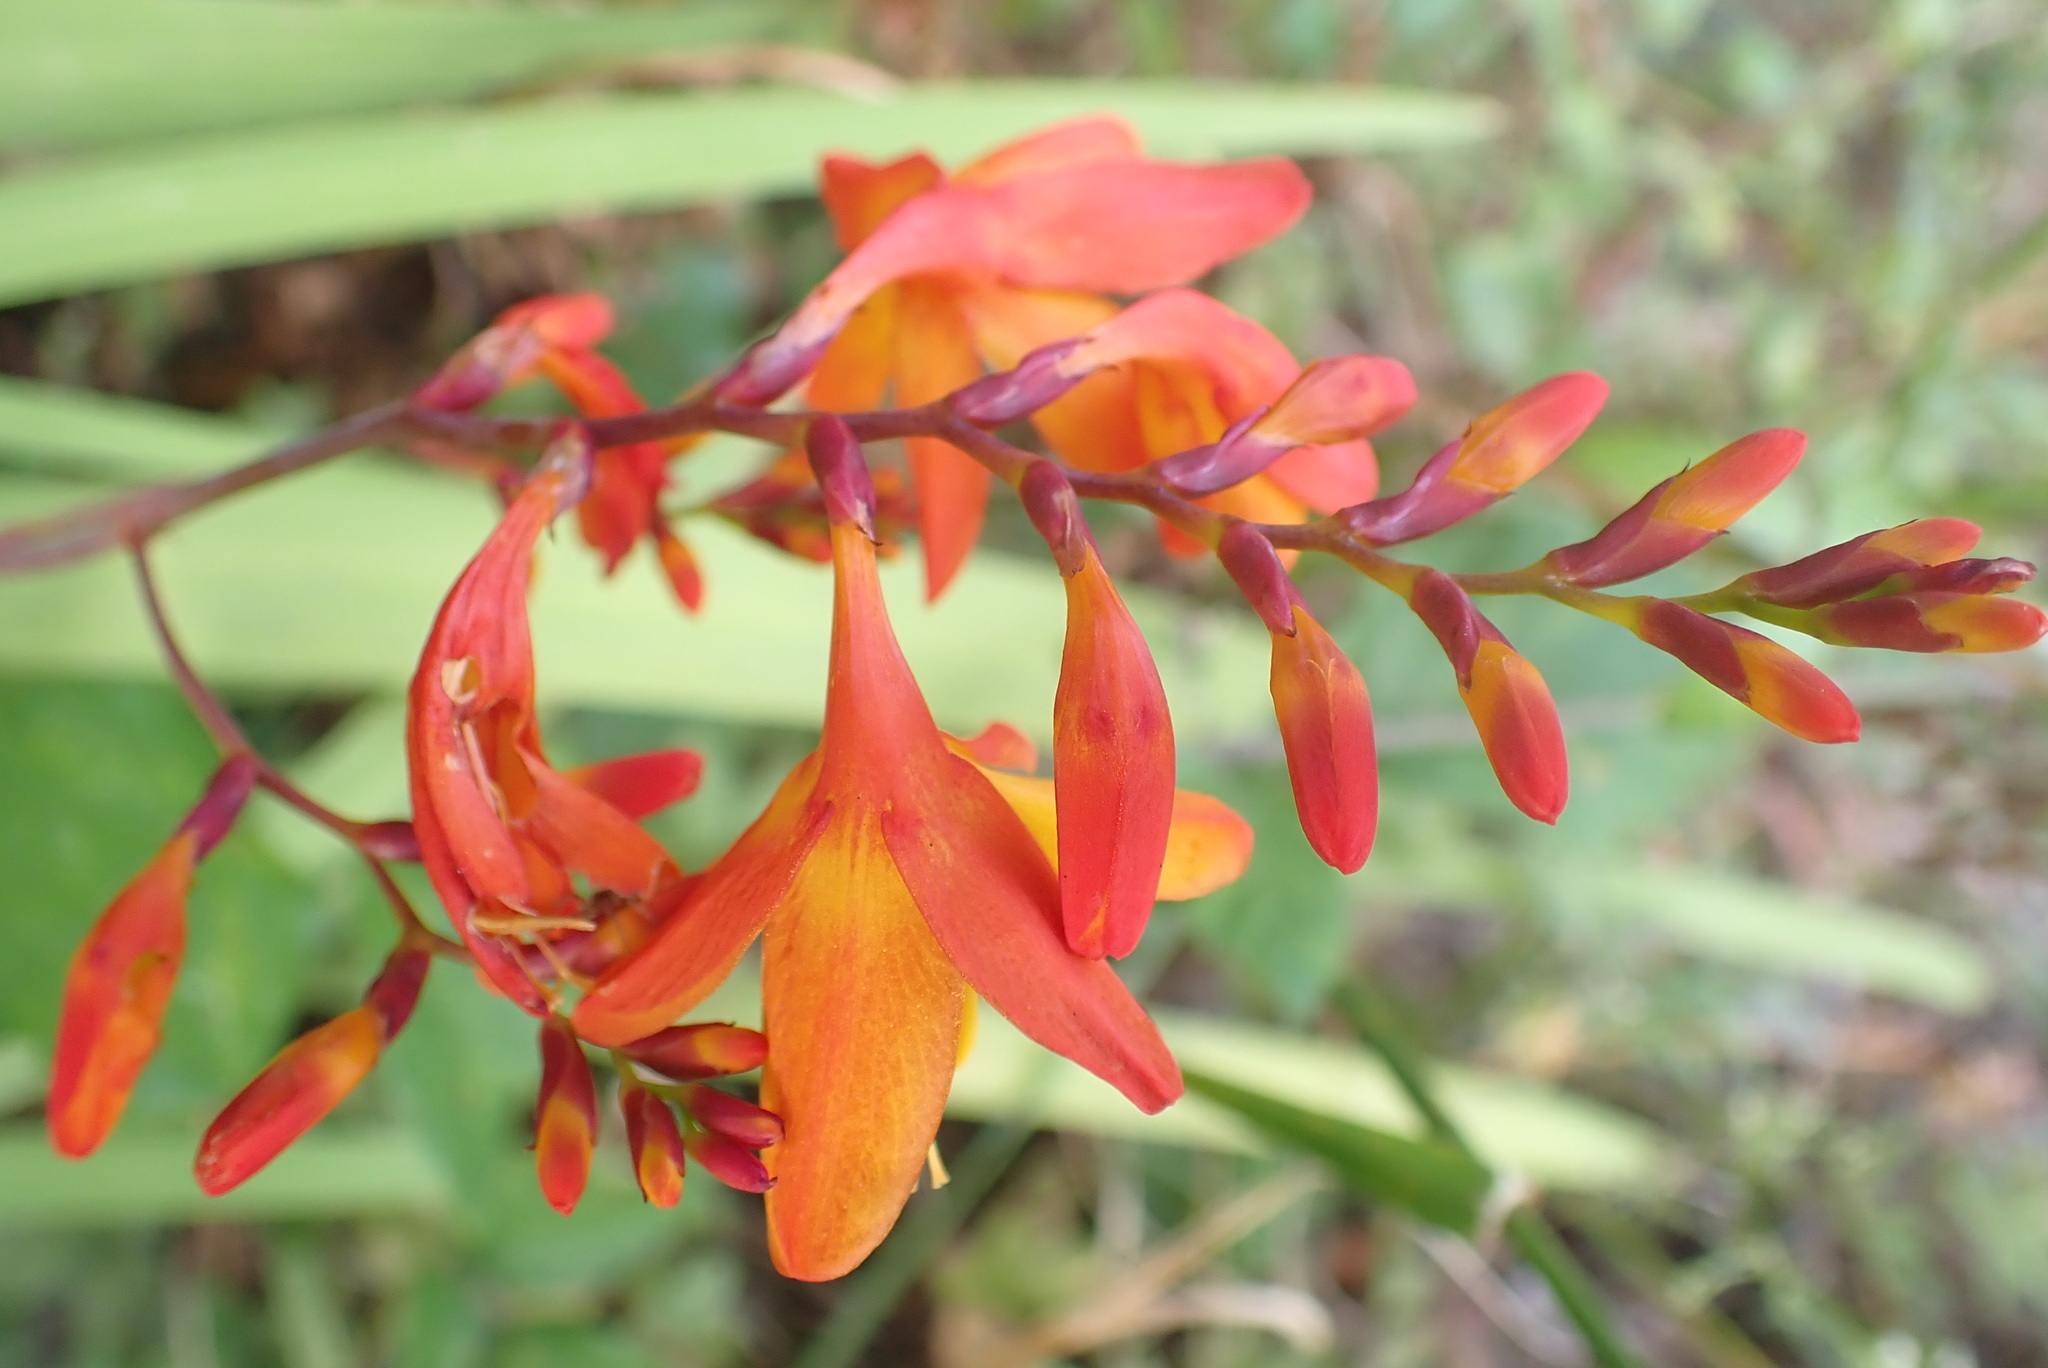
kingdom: Plantae
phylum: Tracheophyta
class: Liliopsida
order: Asparagales
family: Iridaceae
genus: Crocosmia
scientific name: Crocosmia crocosmiiflora
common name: Montbretia
